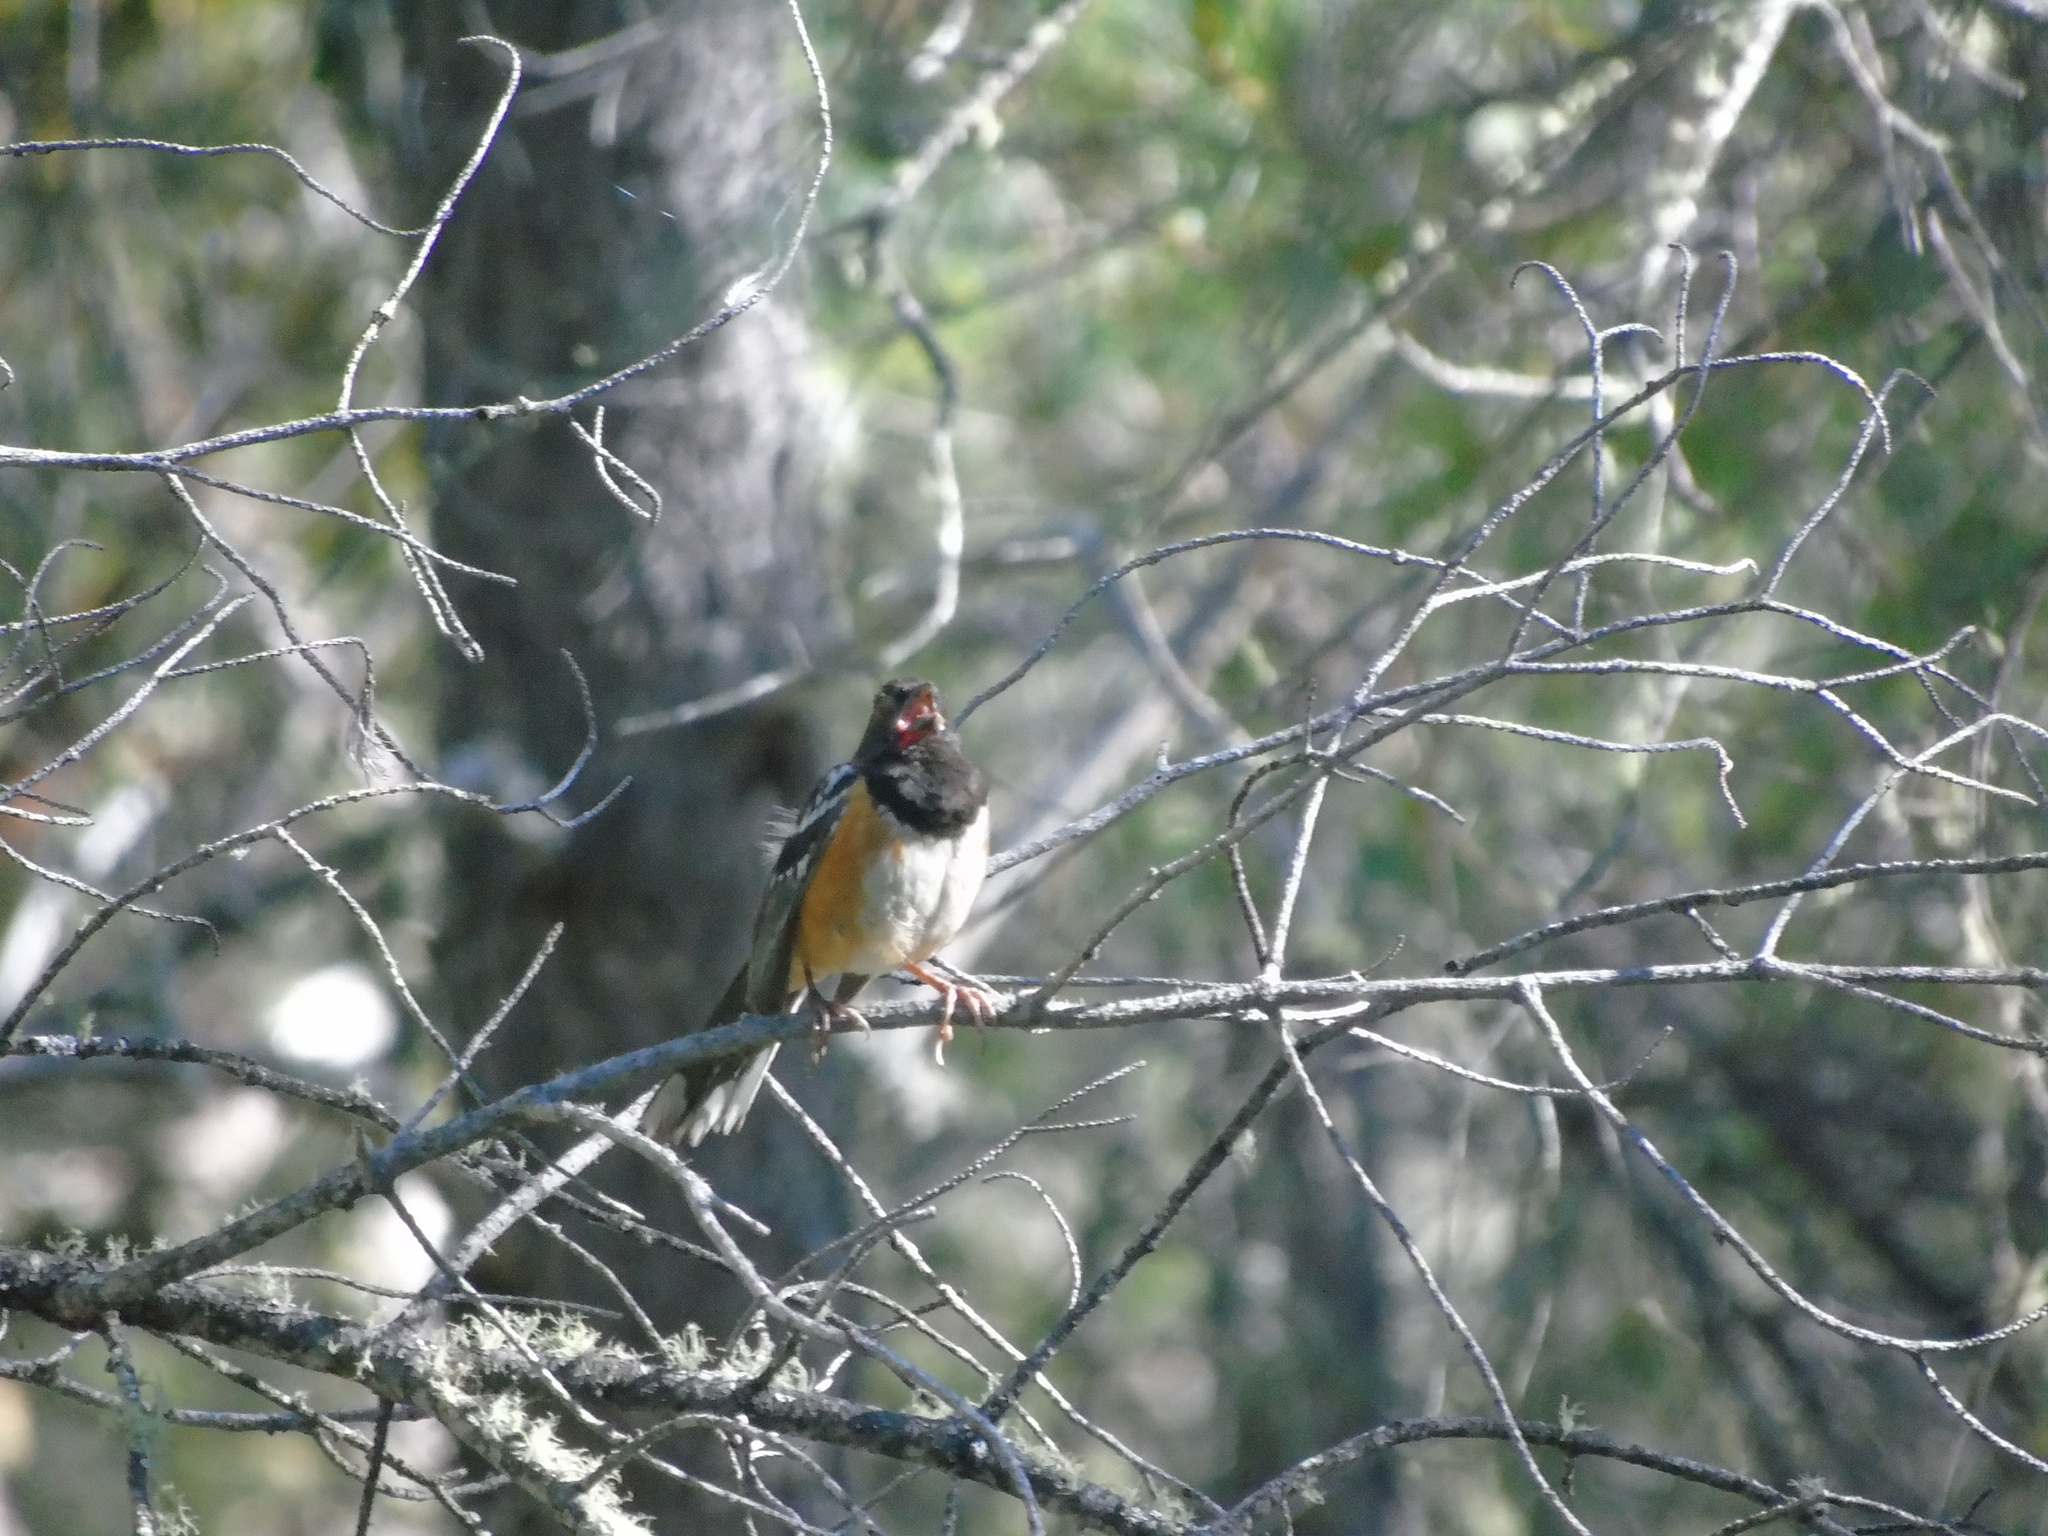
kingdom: Animalia
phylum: Chordata
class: Aves
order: Passeriformes
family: Passerellidae
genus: Pipilo
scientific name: Pipilo maculatus
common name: Spotted towhee
